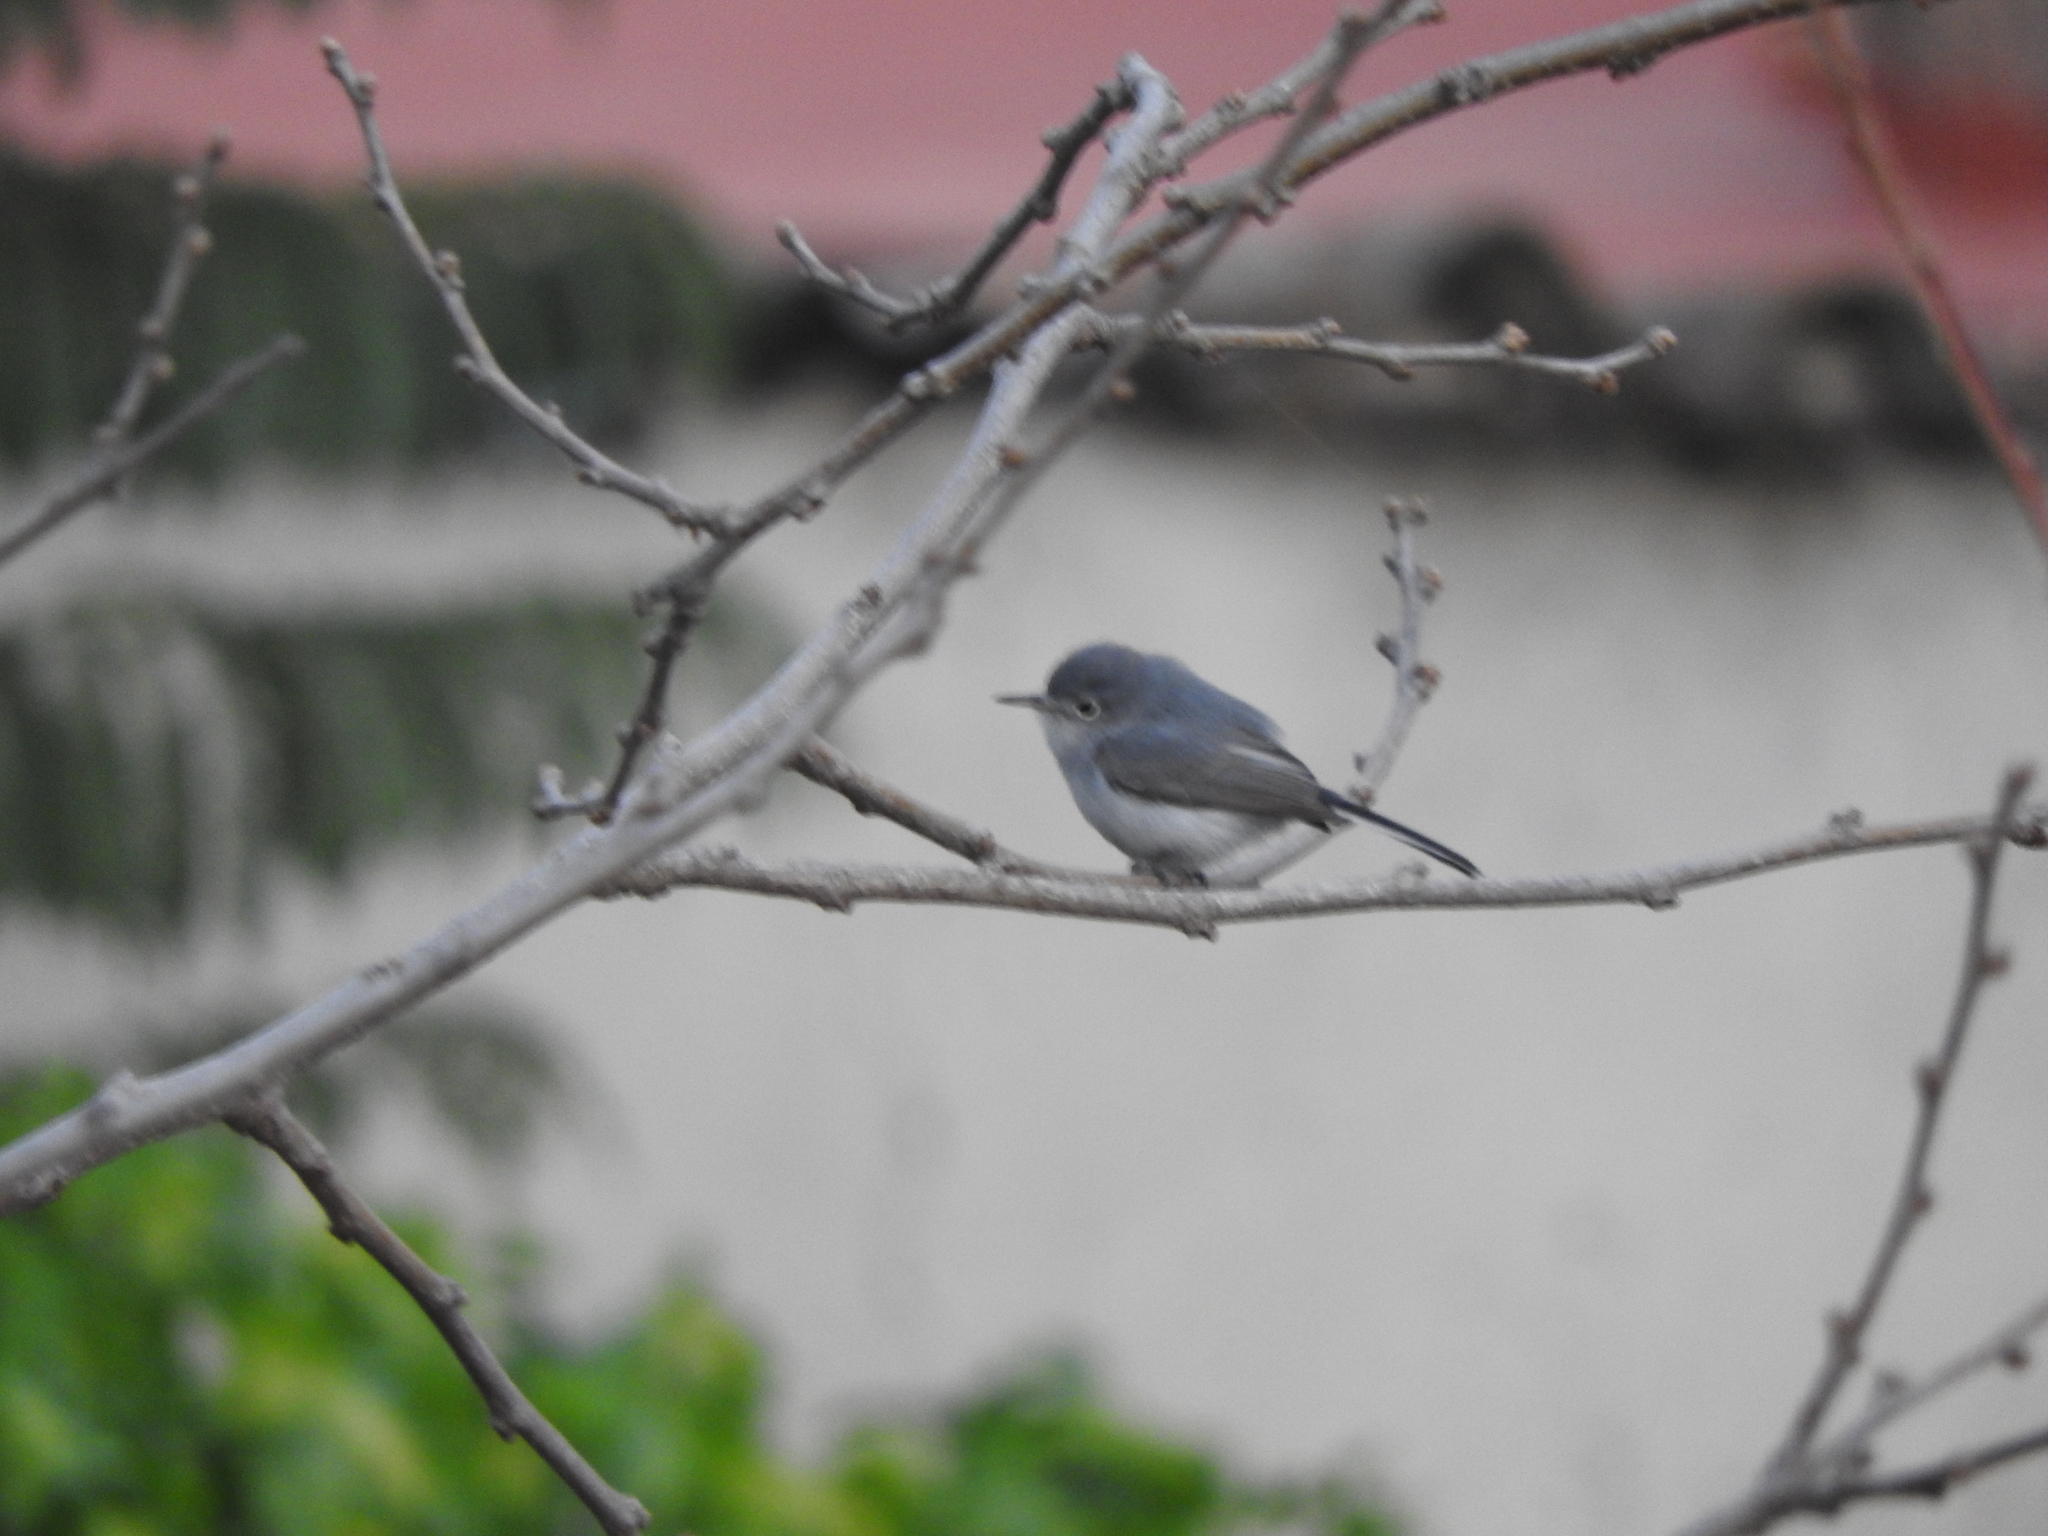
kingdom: Animalia
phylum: Chordata
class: Aves
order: Passeriformes
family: Polioptilidae
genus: Polioptila
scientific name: Polioptila caerulea
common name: Blue-gray gnatcatcher
